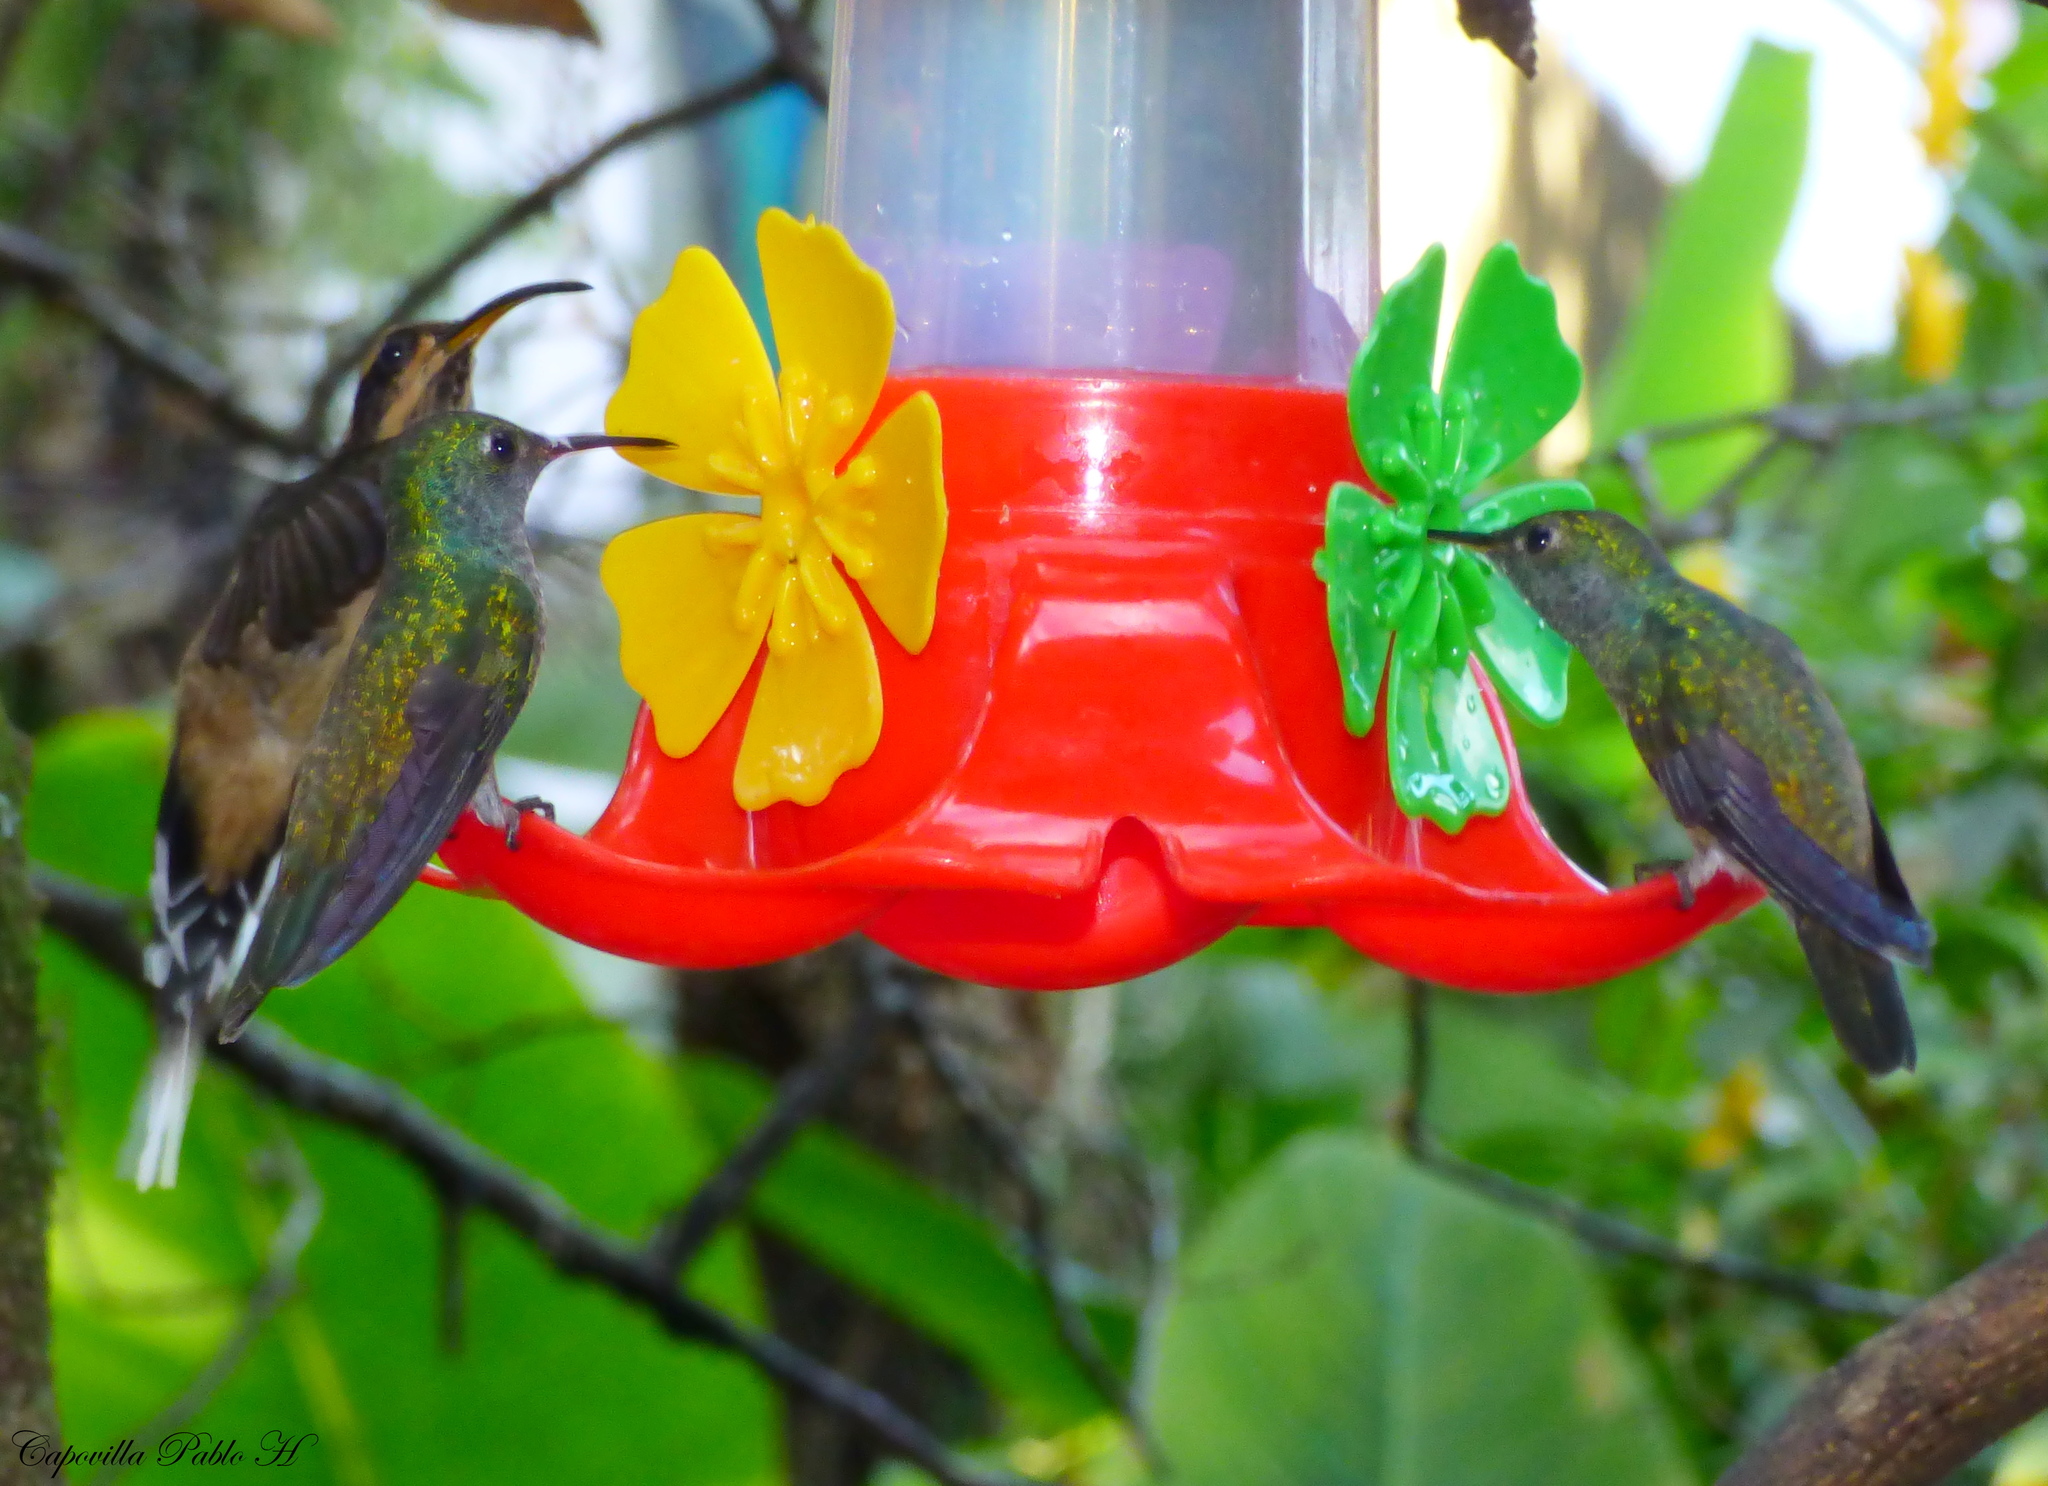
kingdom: Animalia
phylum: Chordata
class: Aves
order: Apodiformes
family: Trochilidae
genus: Phaethornis
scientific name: Phaethornis eurynome
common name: Scale-throated hermit
